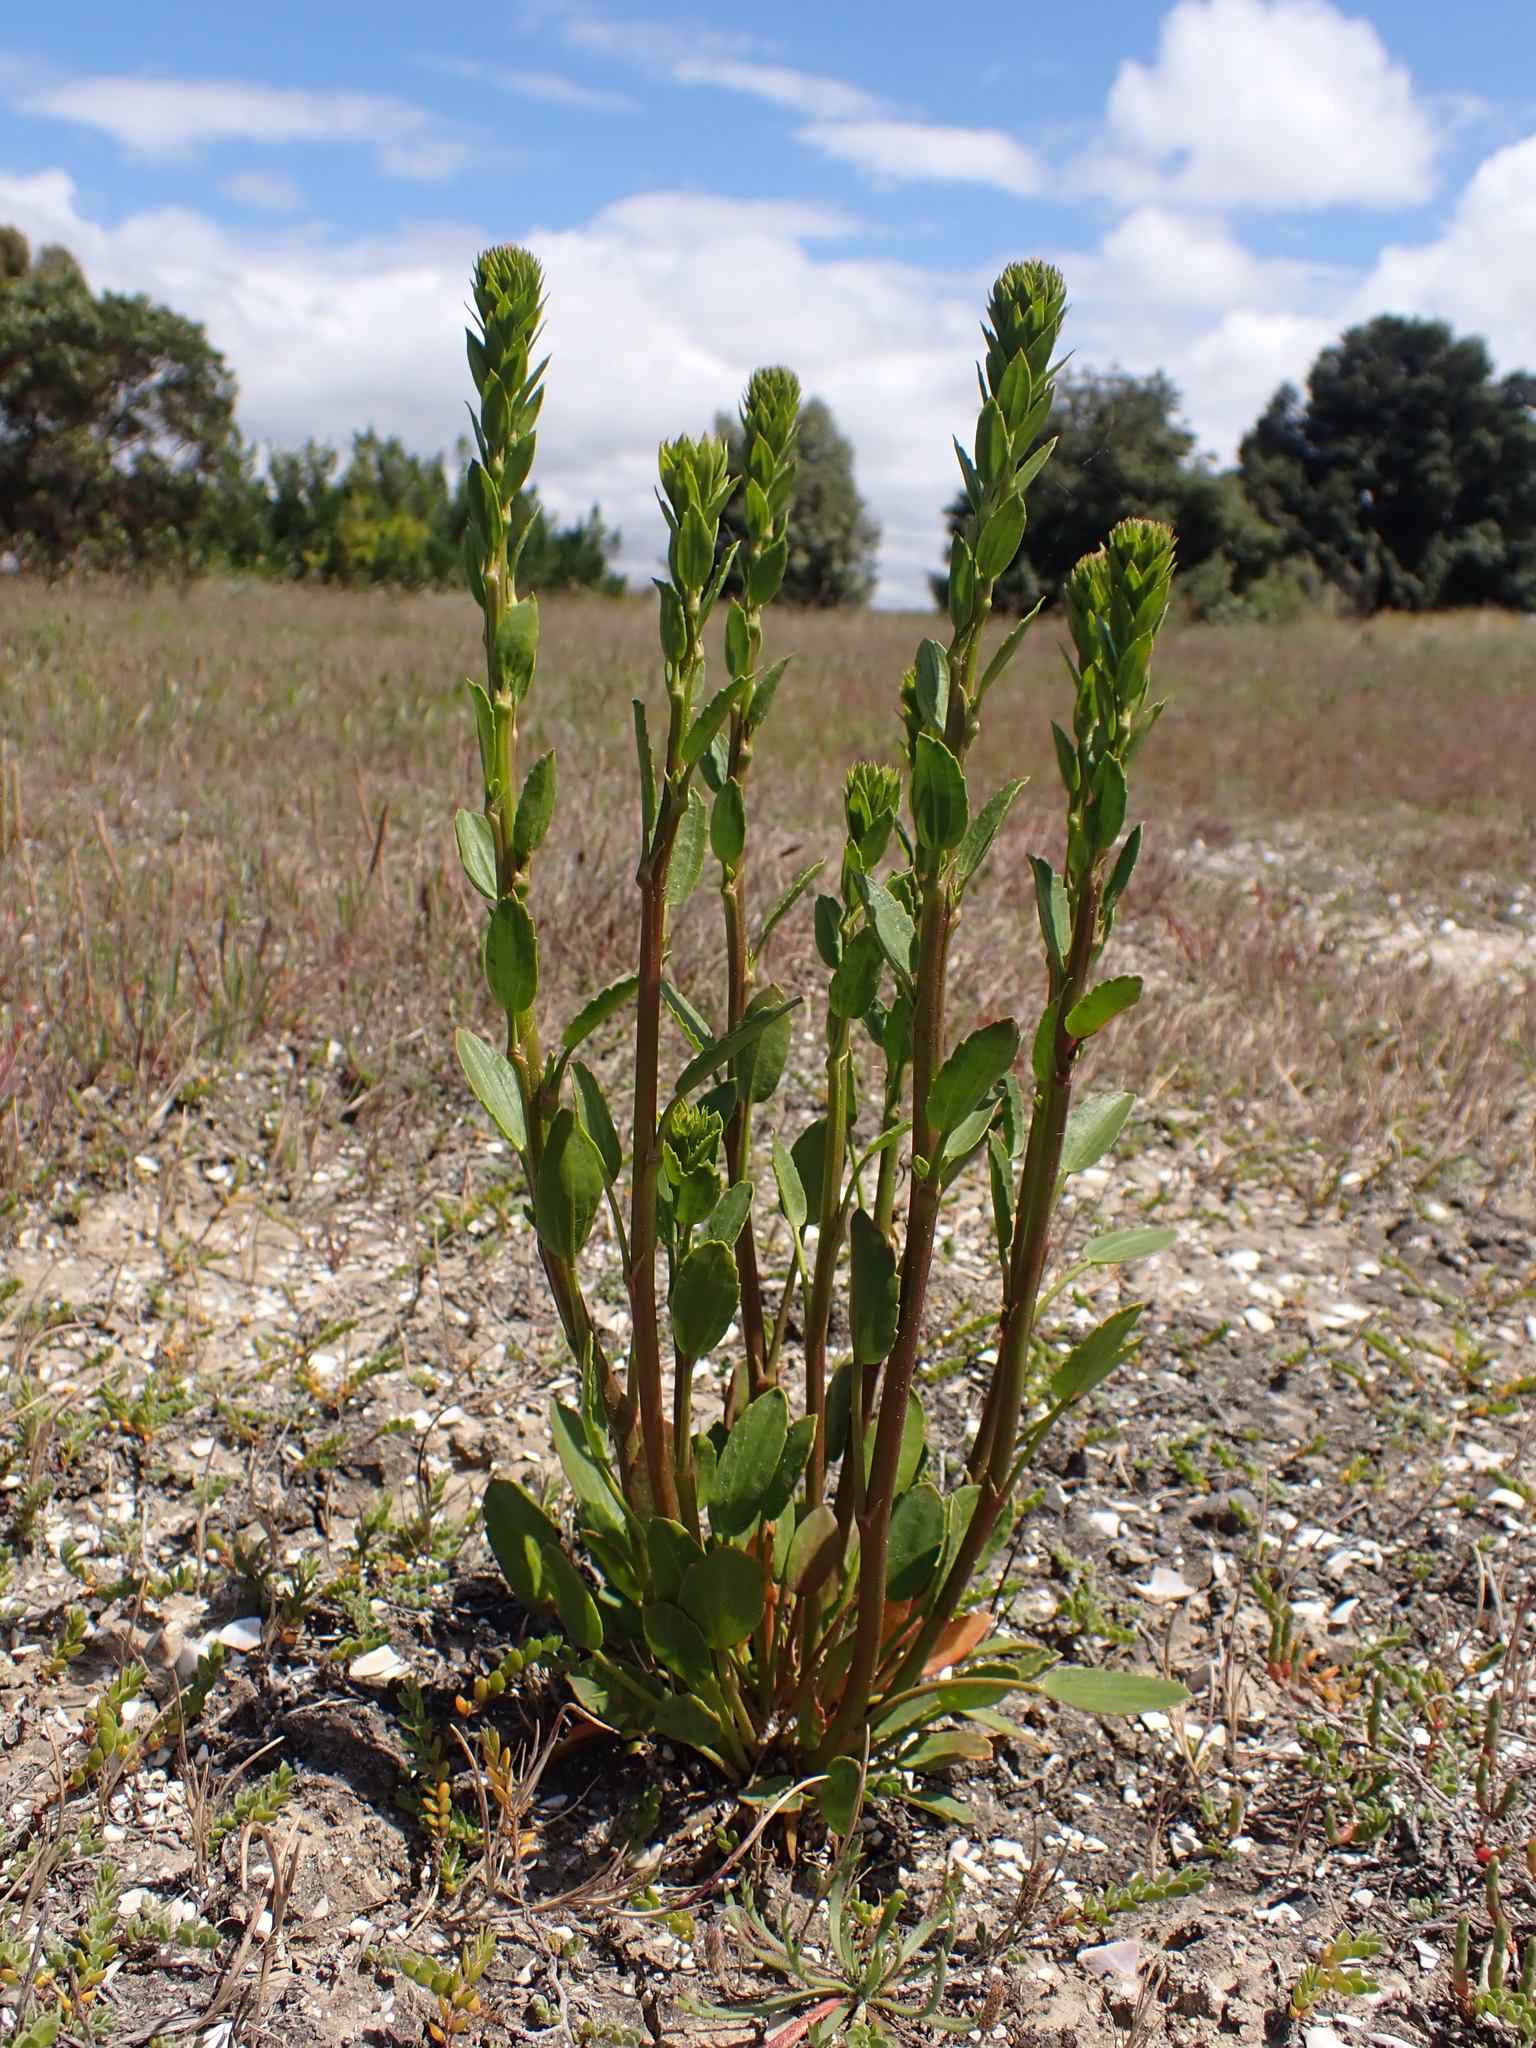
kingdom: Plantae
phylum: Tracheophyta
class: Magnoliopsida
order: Malvales
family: Malvaceae
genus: Lawrencia
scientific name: Lawrencia spicata
